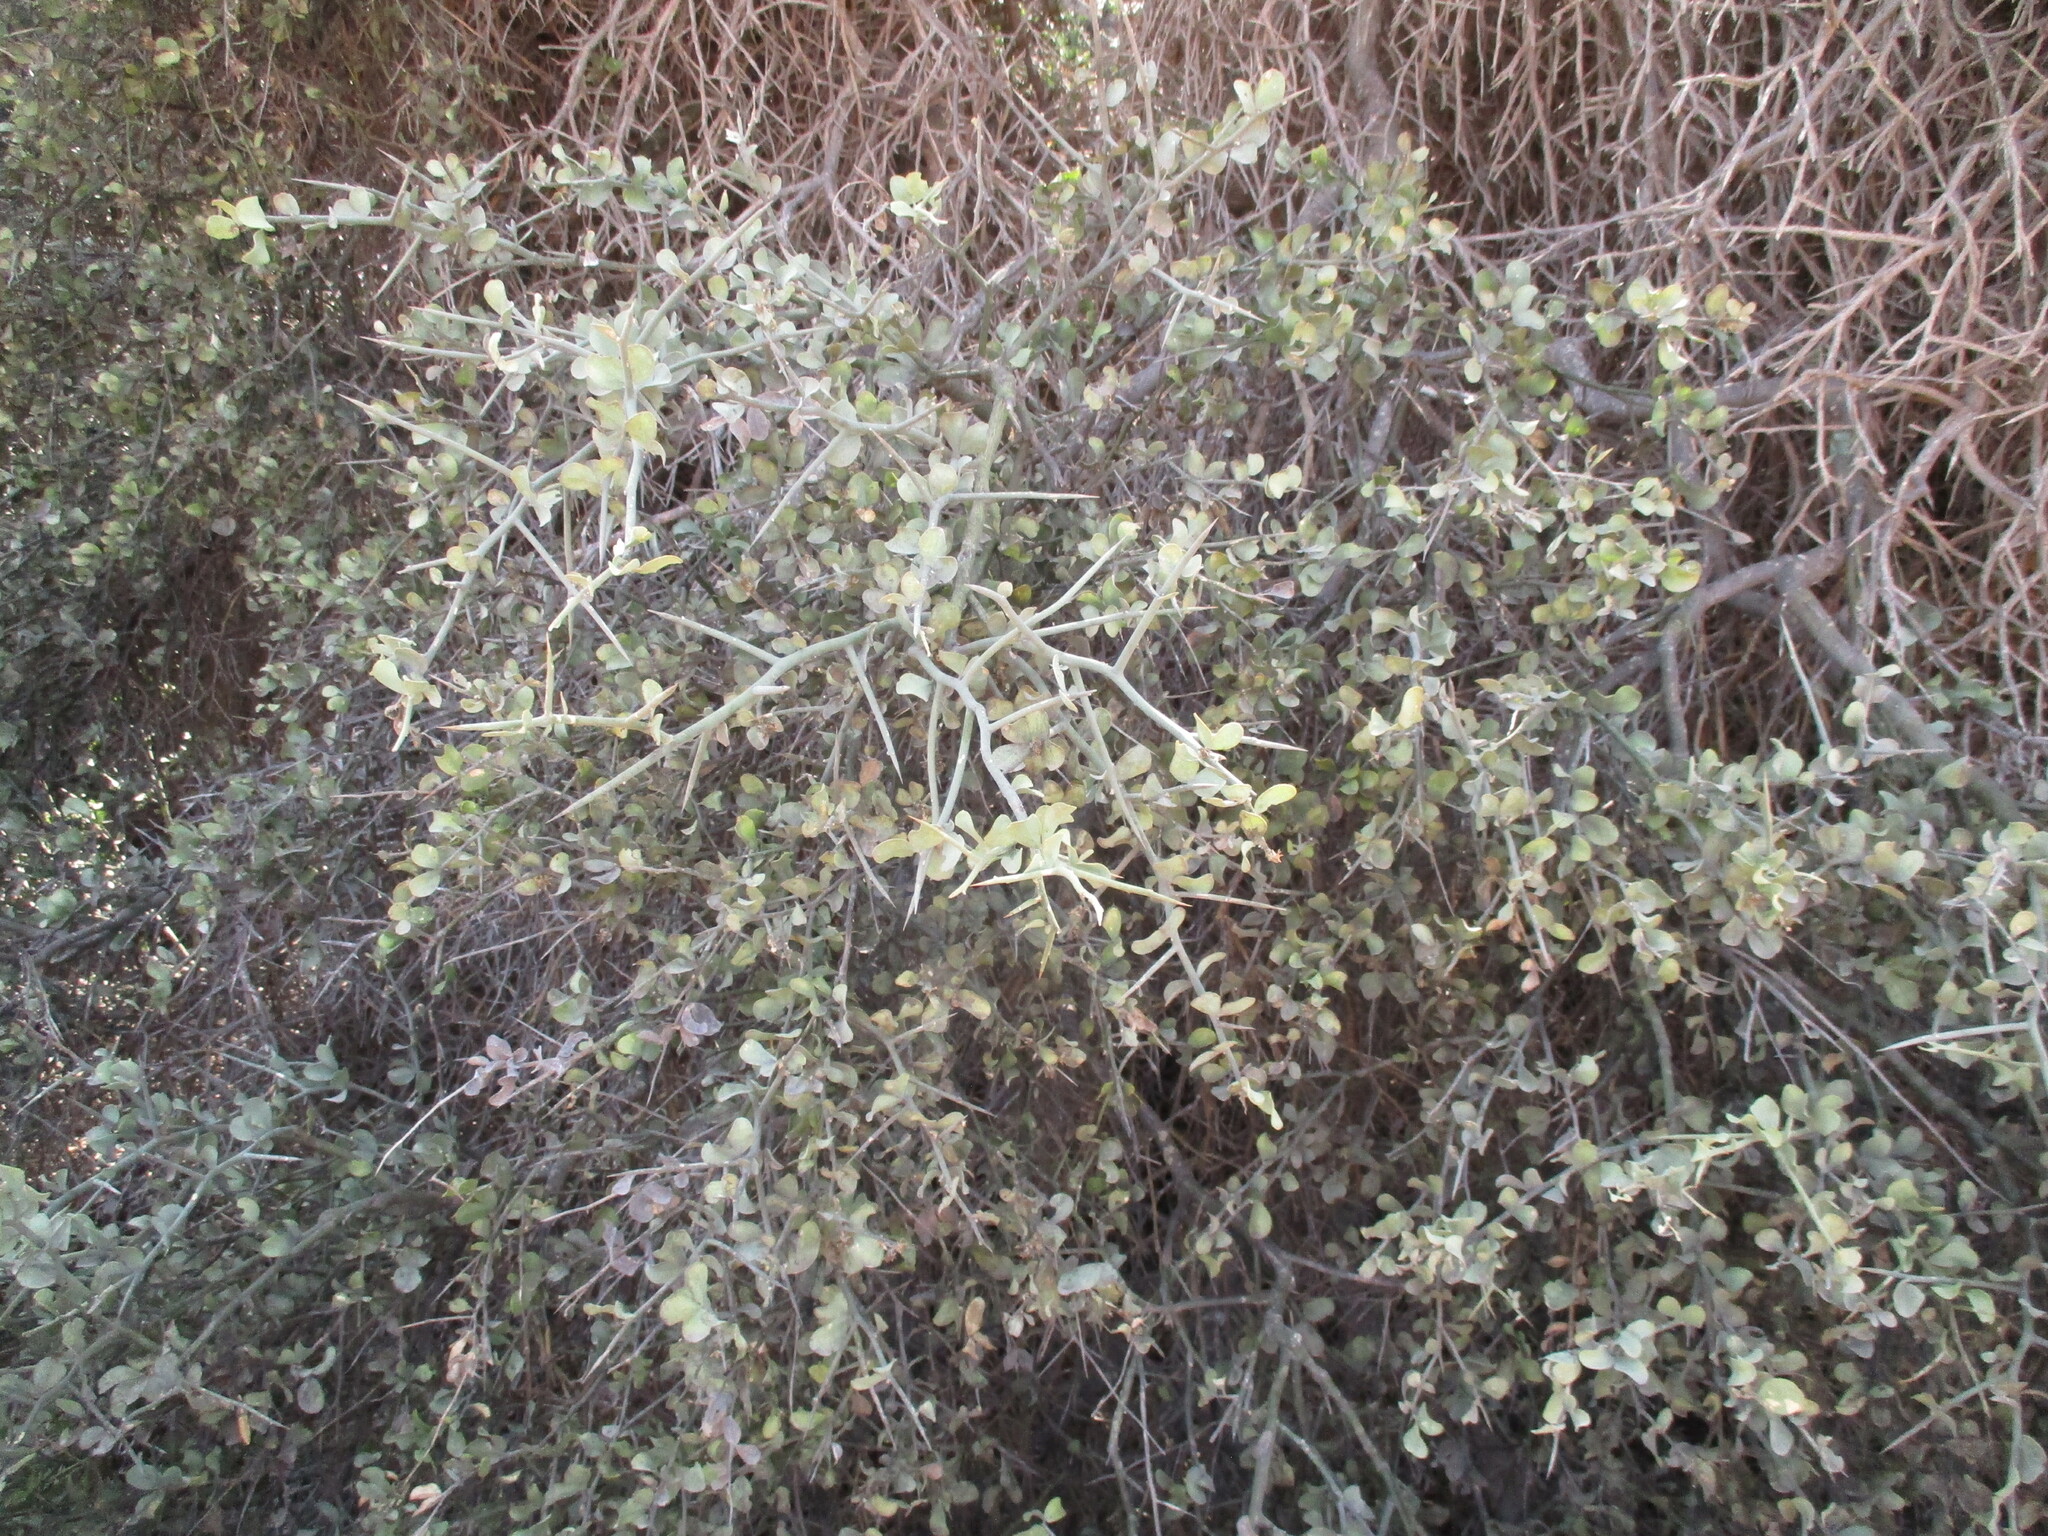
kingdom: Plantae
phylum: Tracheophyta
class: Magnoliopsida
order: Zygophyllales
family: Zygophyllaceae
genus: Balanites
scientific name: Balanites angolensis
